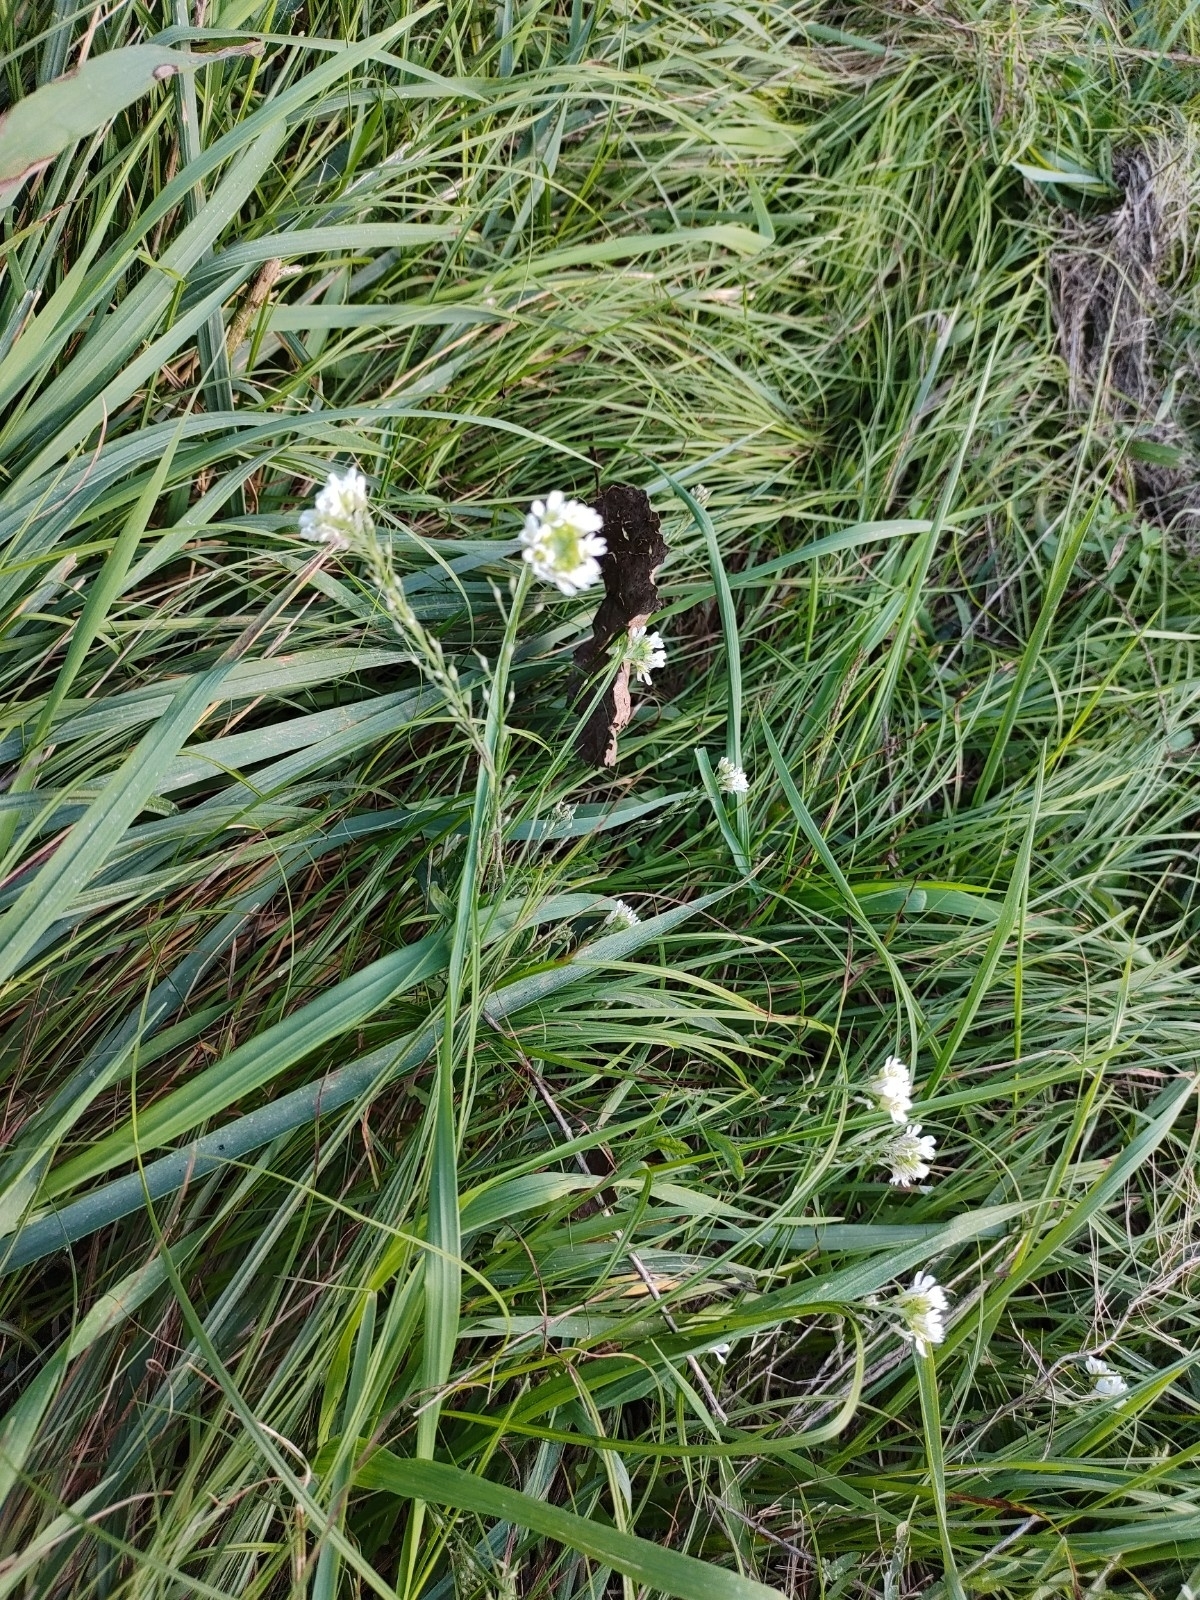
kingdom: Plantae
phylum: Tracheophyta
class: Magnoliopsida
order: Brassicales
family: Brassicaceae
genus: Berteroa
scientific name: Berteroa incana
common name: Hoary alison
